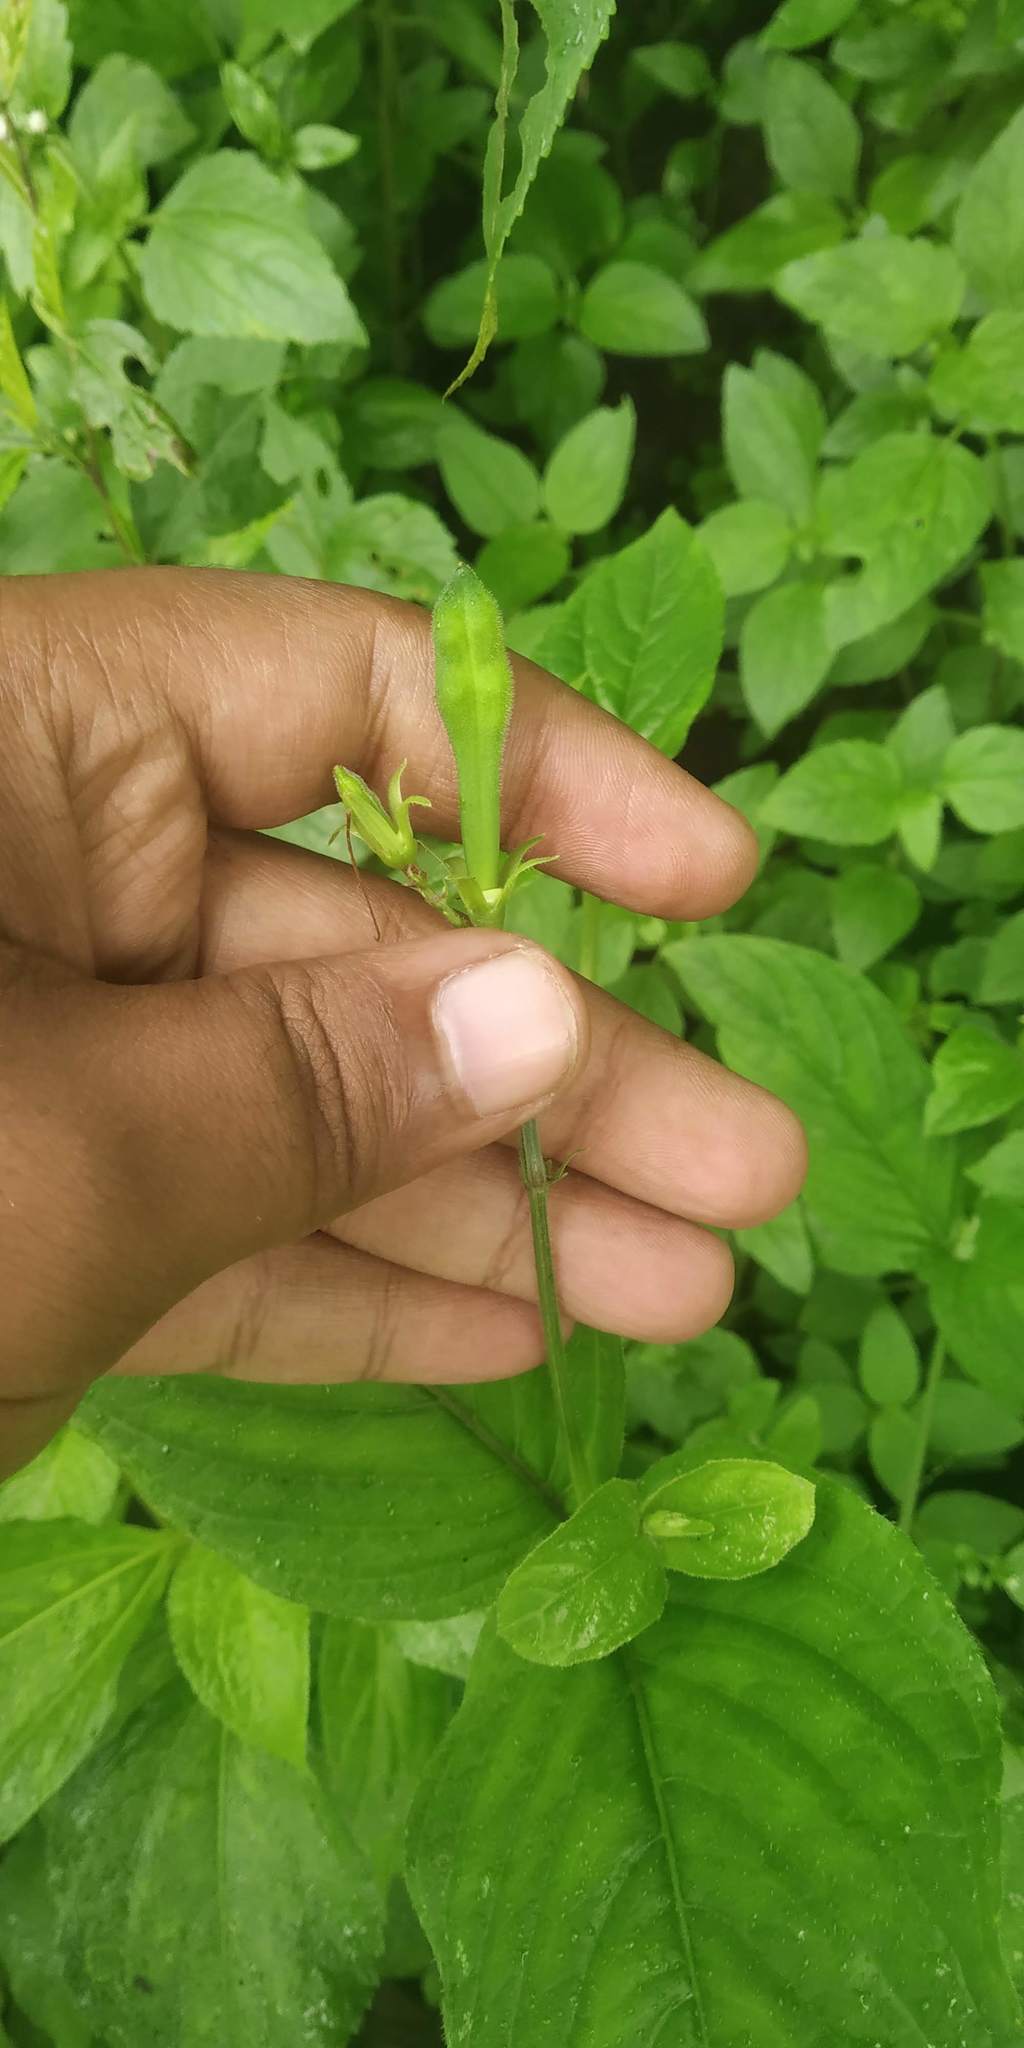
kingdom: Plantae
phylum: Tracheophyta
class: Magnoliopsida
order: Lamiales
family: Acanthaceae
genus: Asystasia
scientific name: Asystasia dalzelliana
